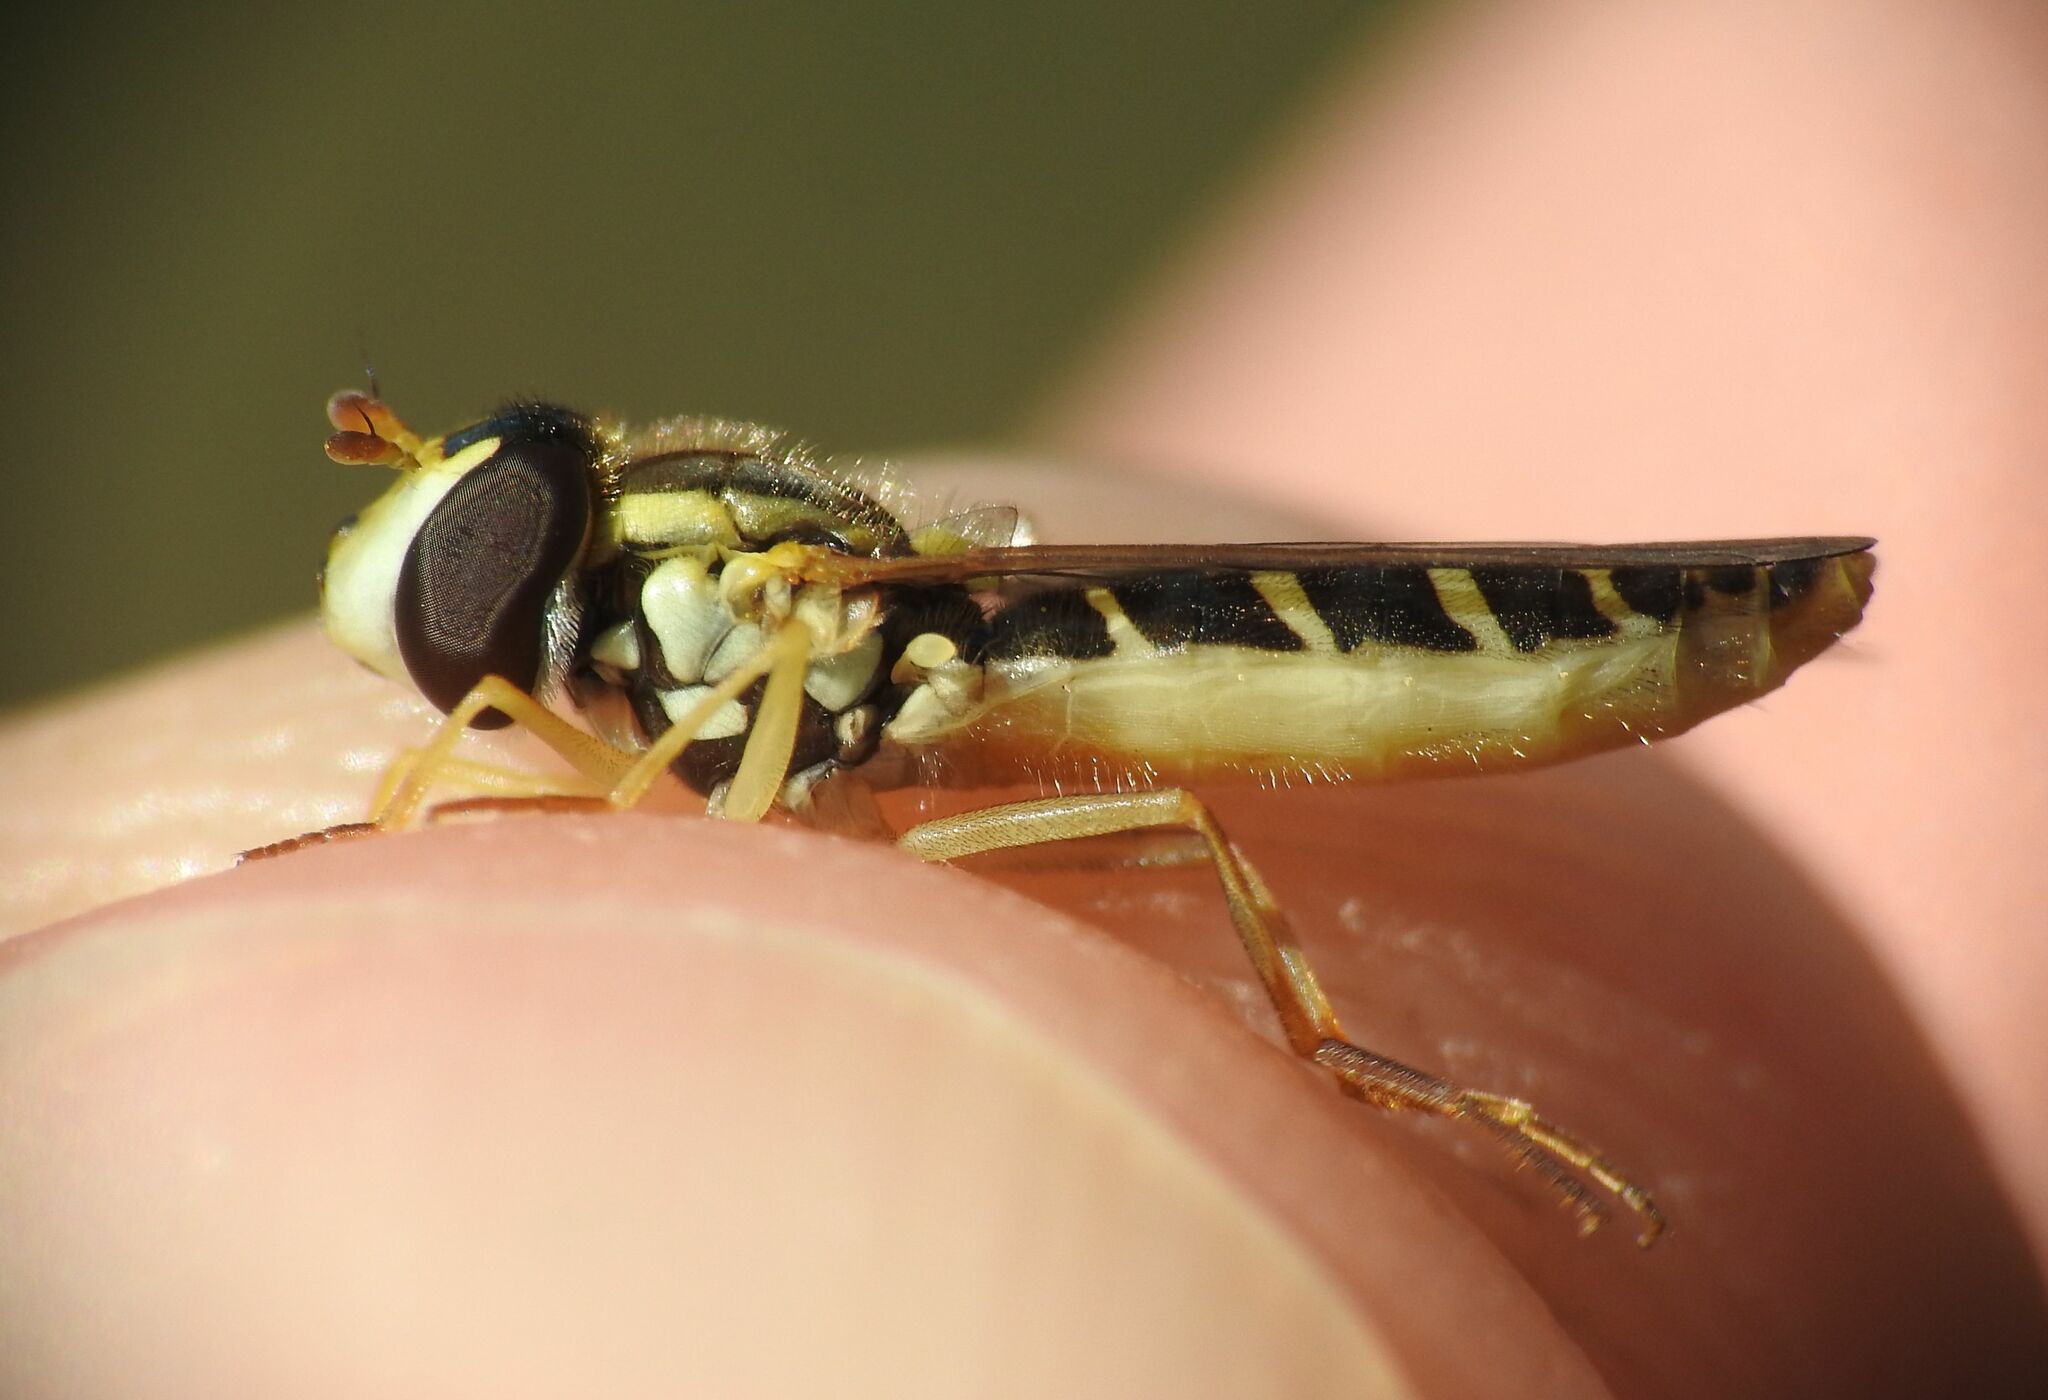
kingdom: Animalia
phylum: Arthropoda
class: Insecta
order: Diptera
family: Syrphidae
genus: Sphaerophoria
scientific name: Sphaerophoria scripta
